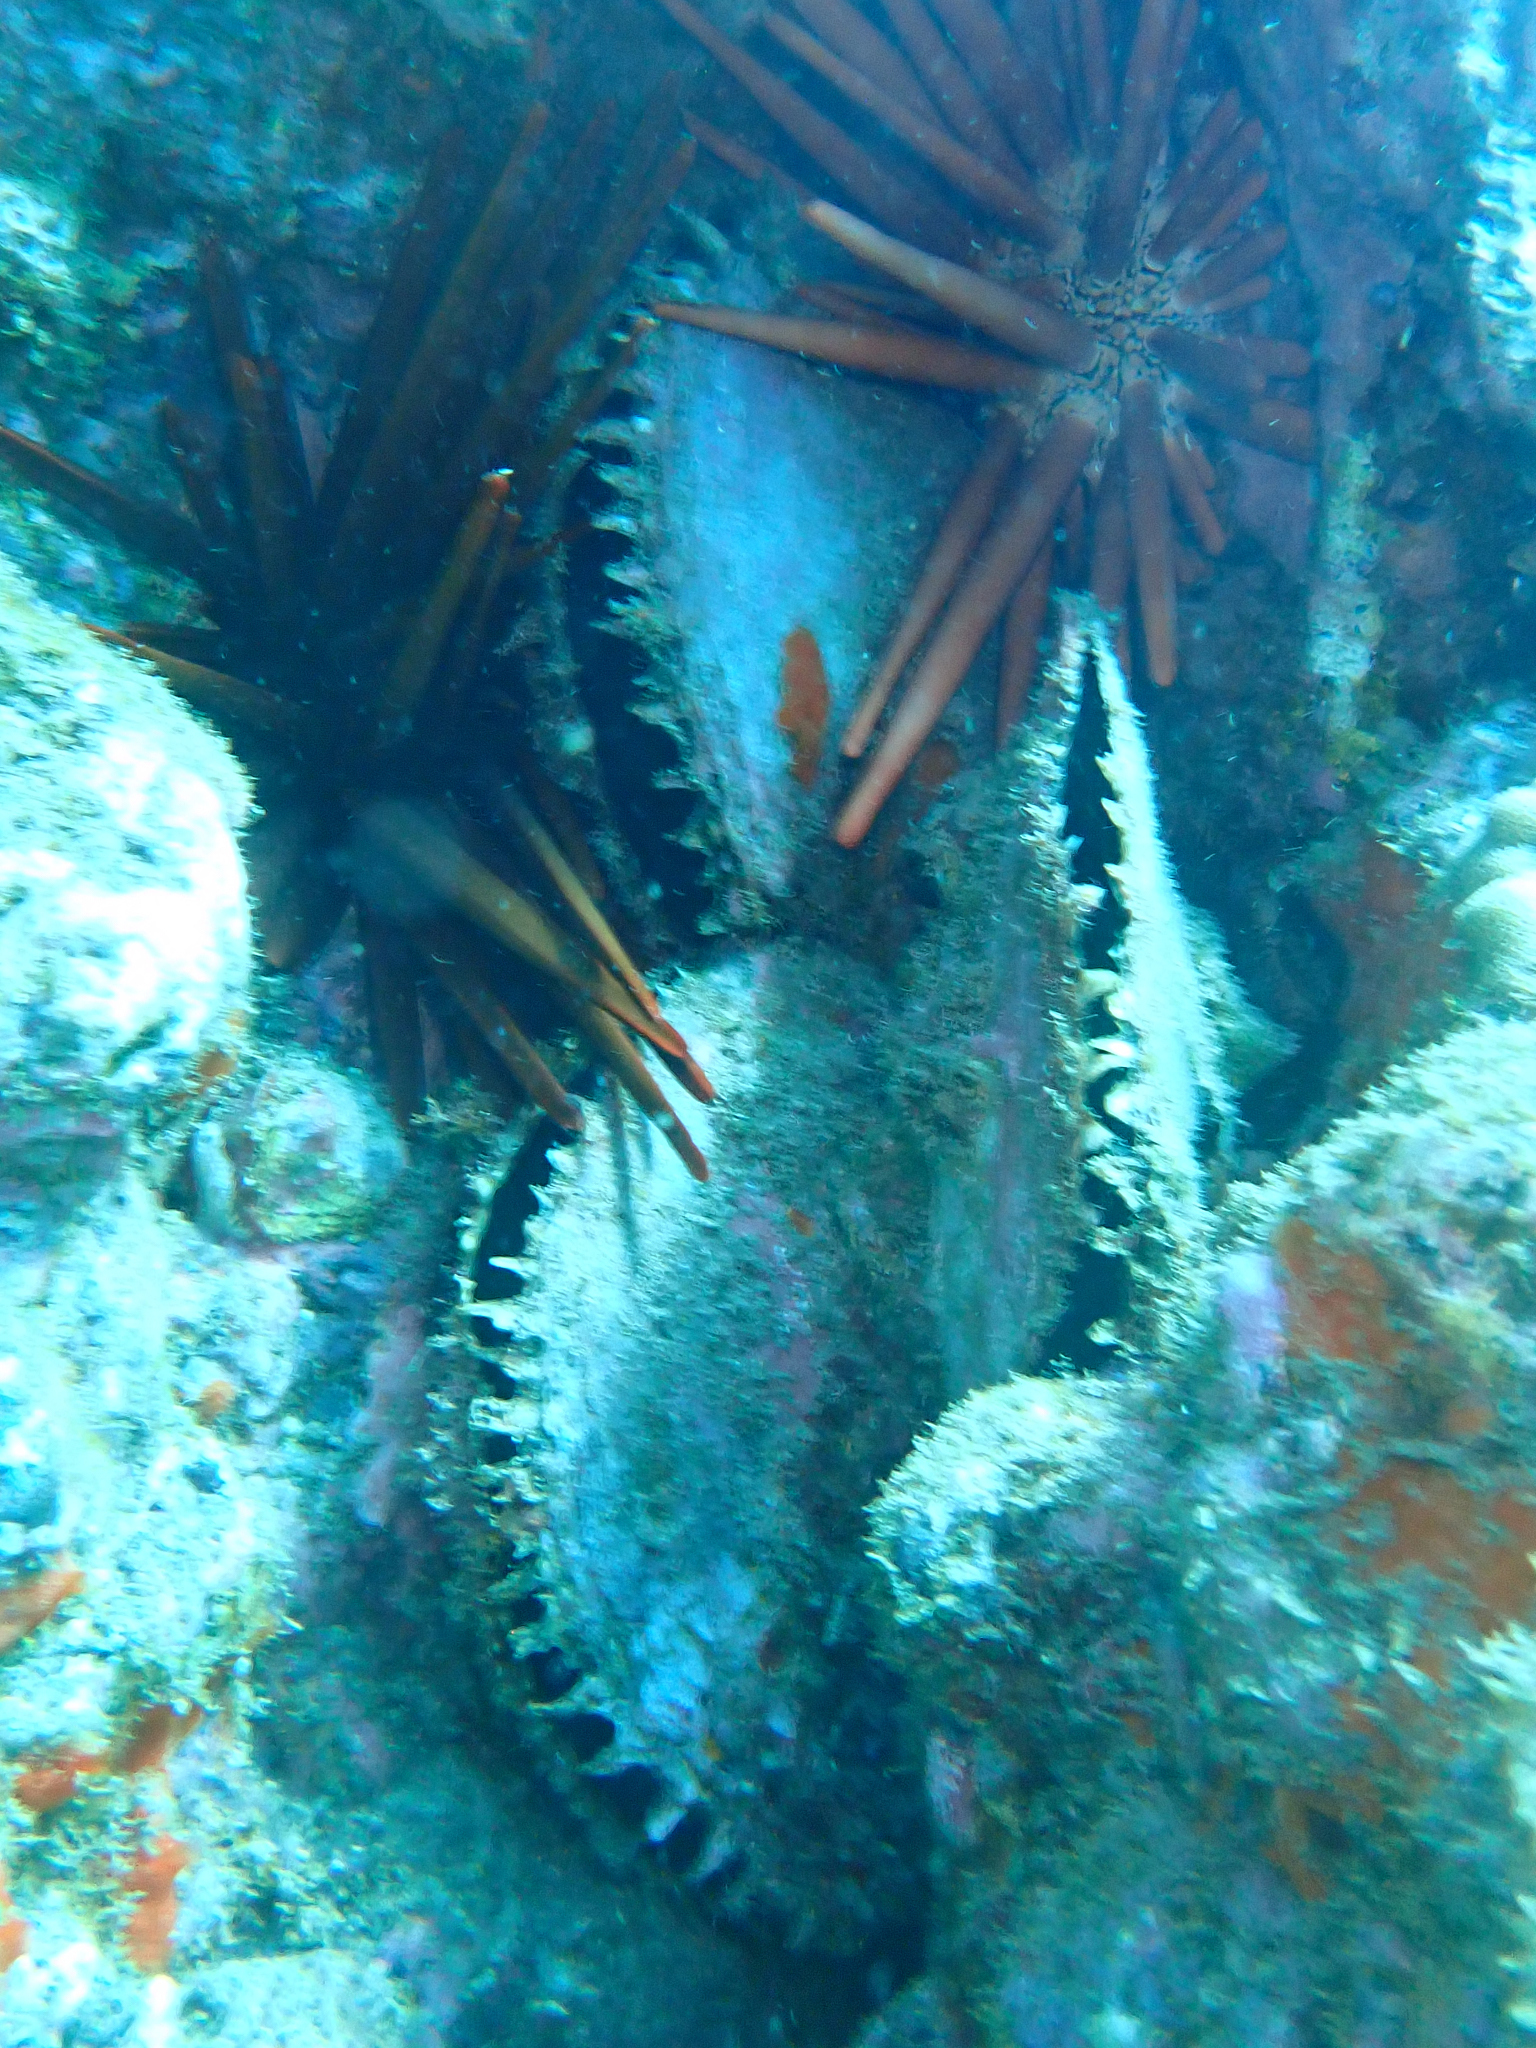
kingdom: Animalia
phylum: Mollusca
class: Bivalvia
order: Ostreida
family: Margaritidae
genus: Pinctada
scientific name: Pinctada margaritifera
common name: Pacific pearl-oyster
